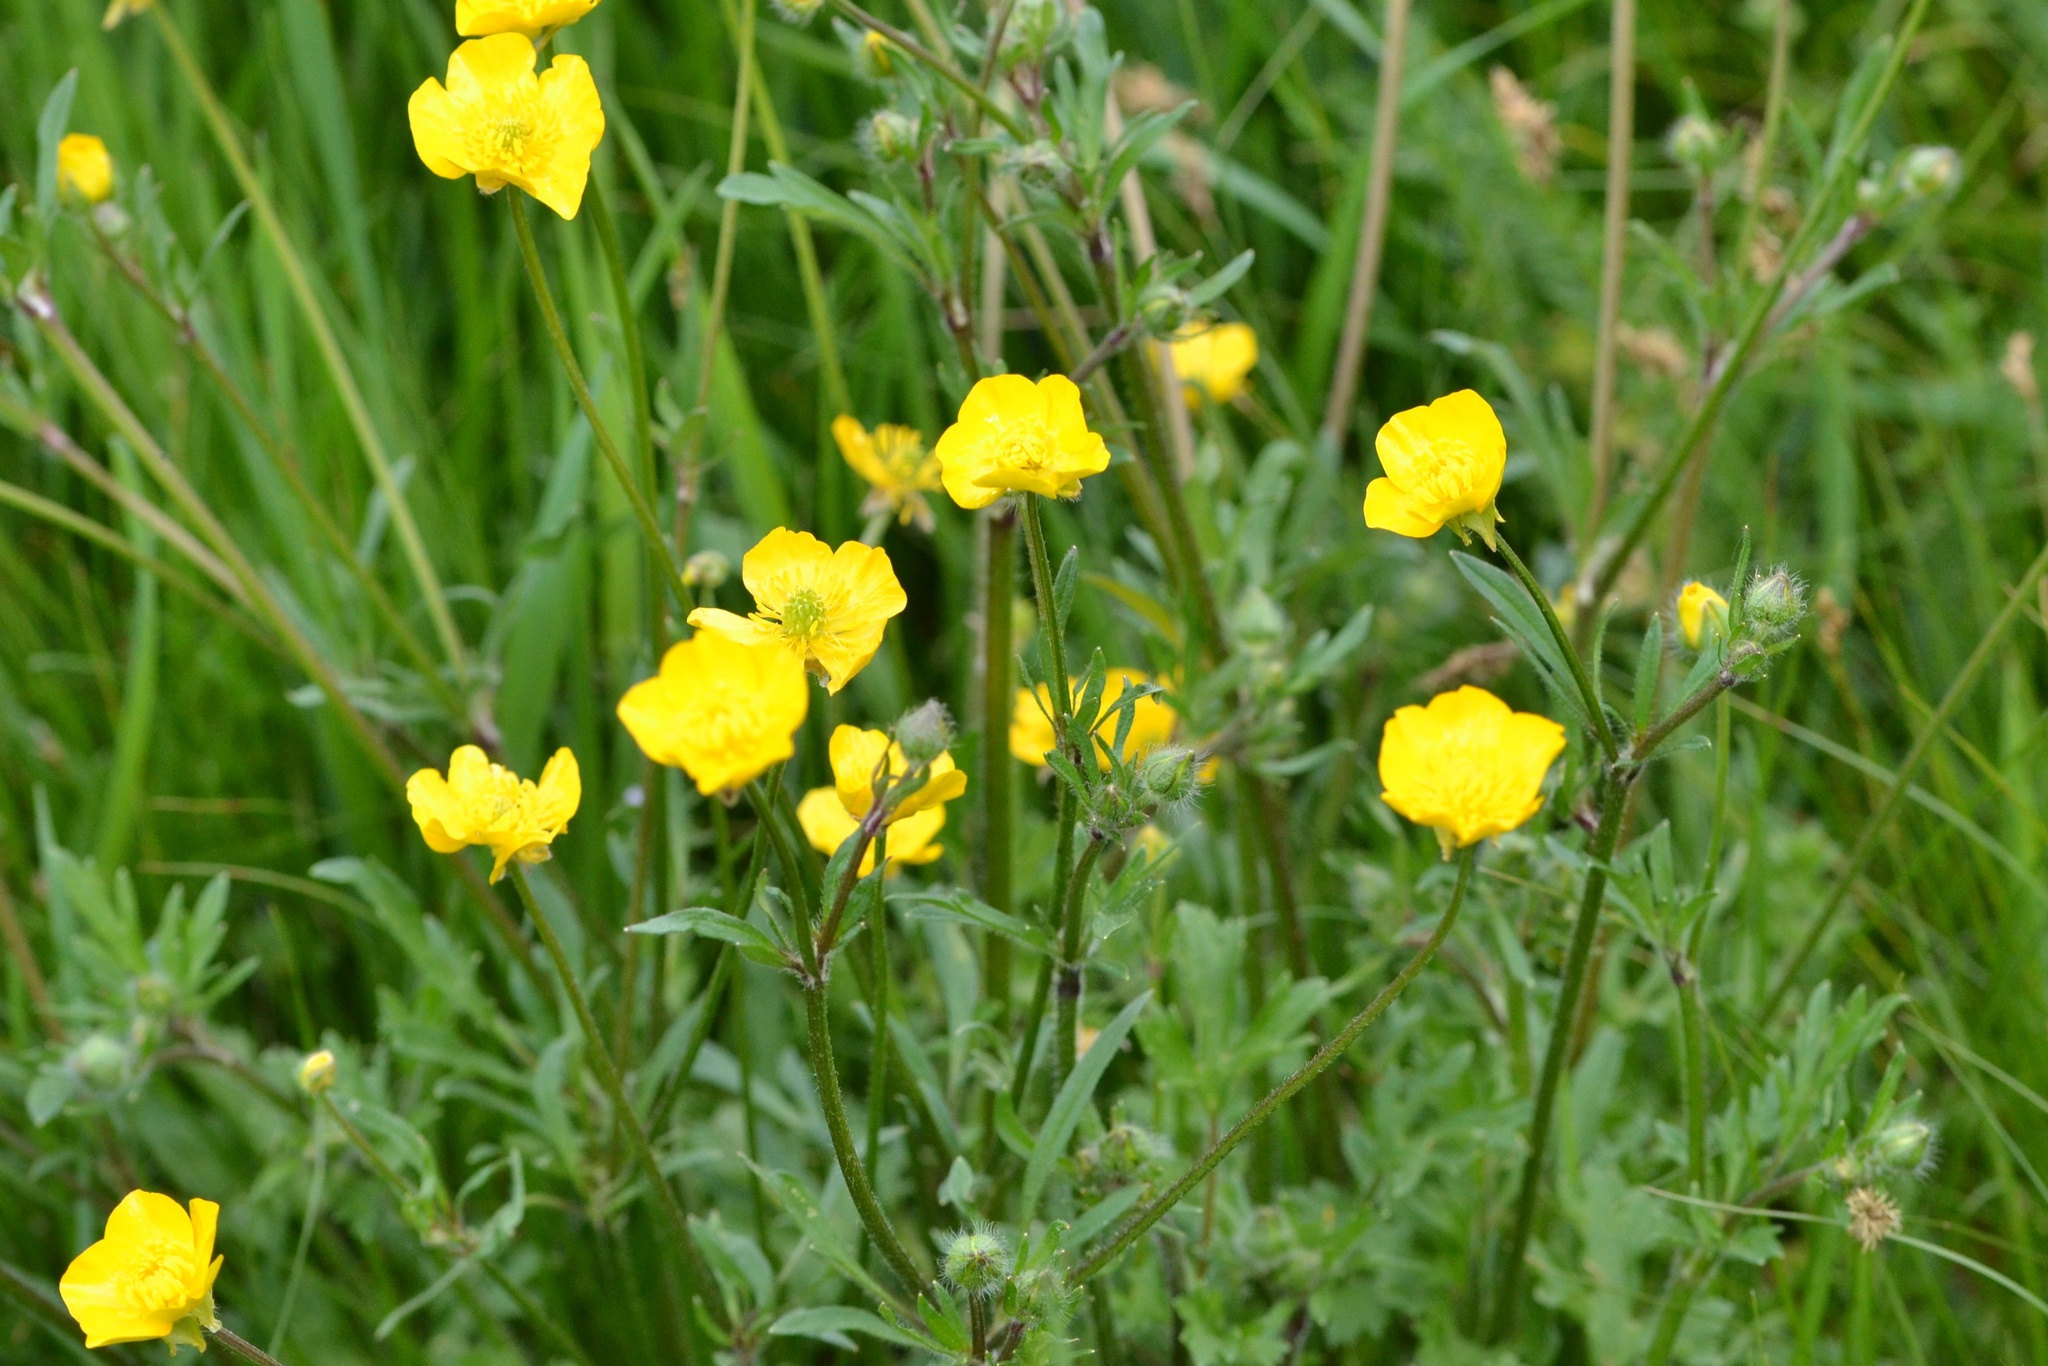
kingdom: Plantae
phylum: Tracheophyta
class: Magnoliopsida
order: Ranunculales
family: Ranunculaceae
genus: Ranunculus
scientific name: Ranunculus bulbosus
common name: Bulbous buttercup
